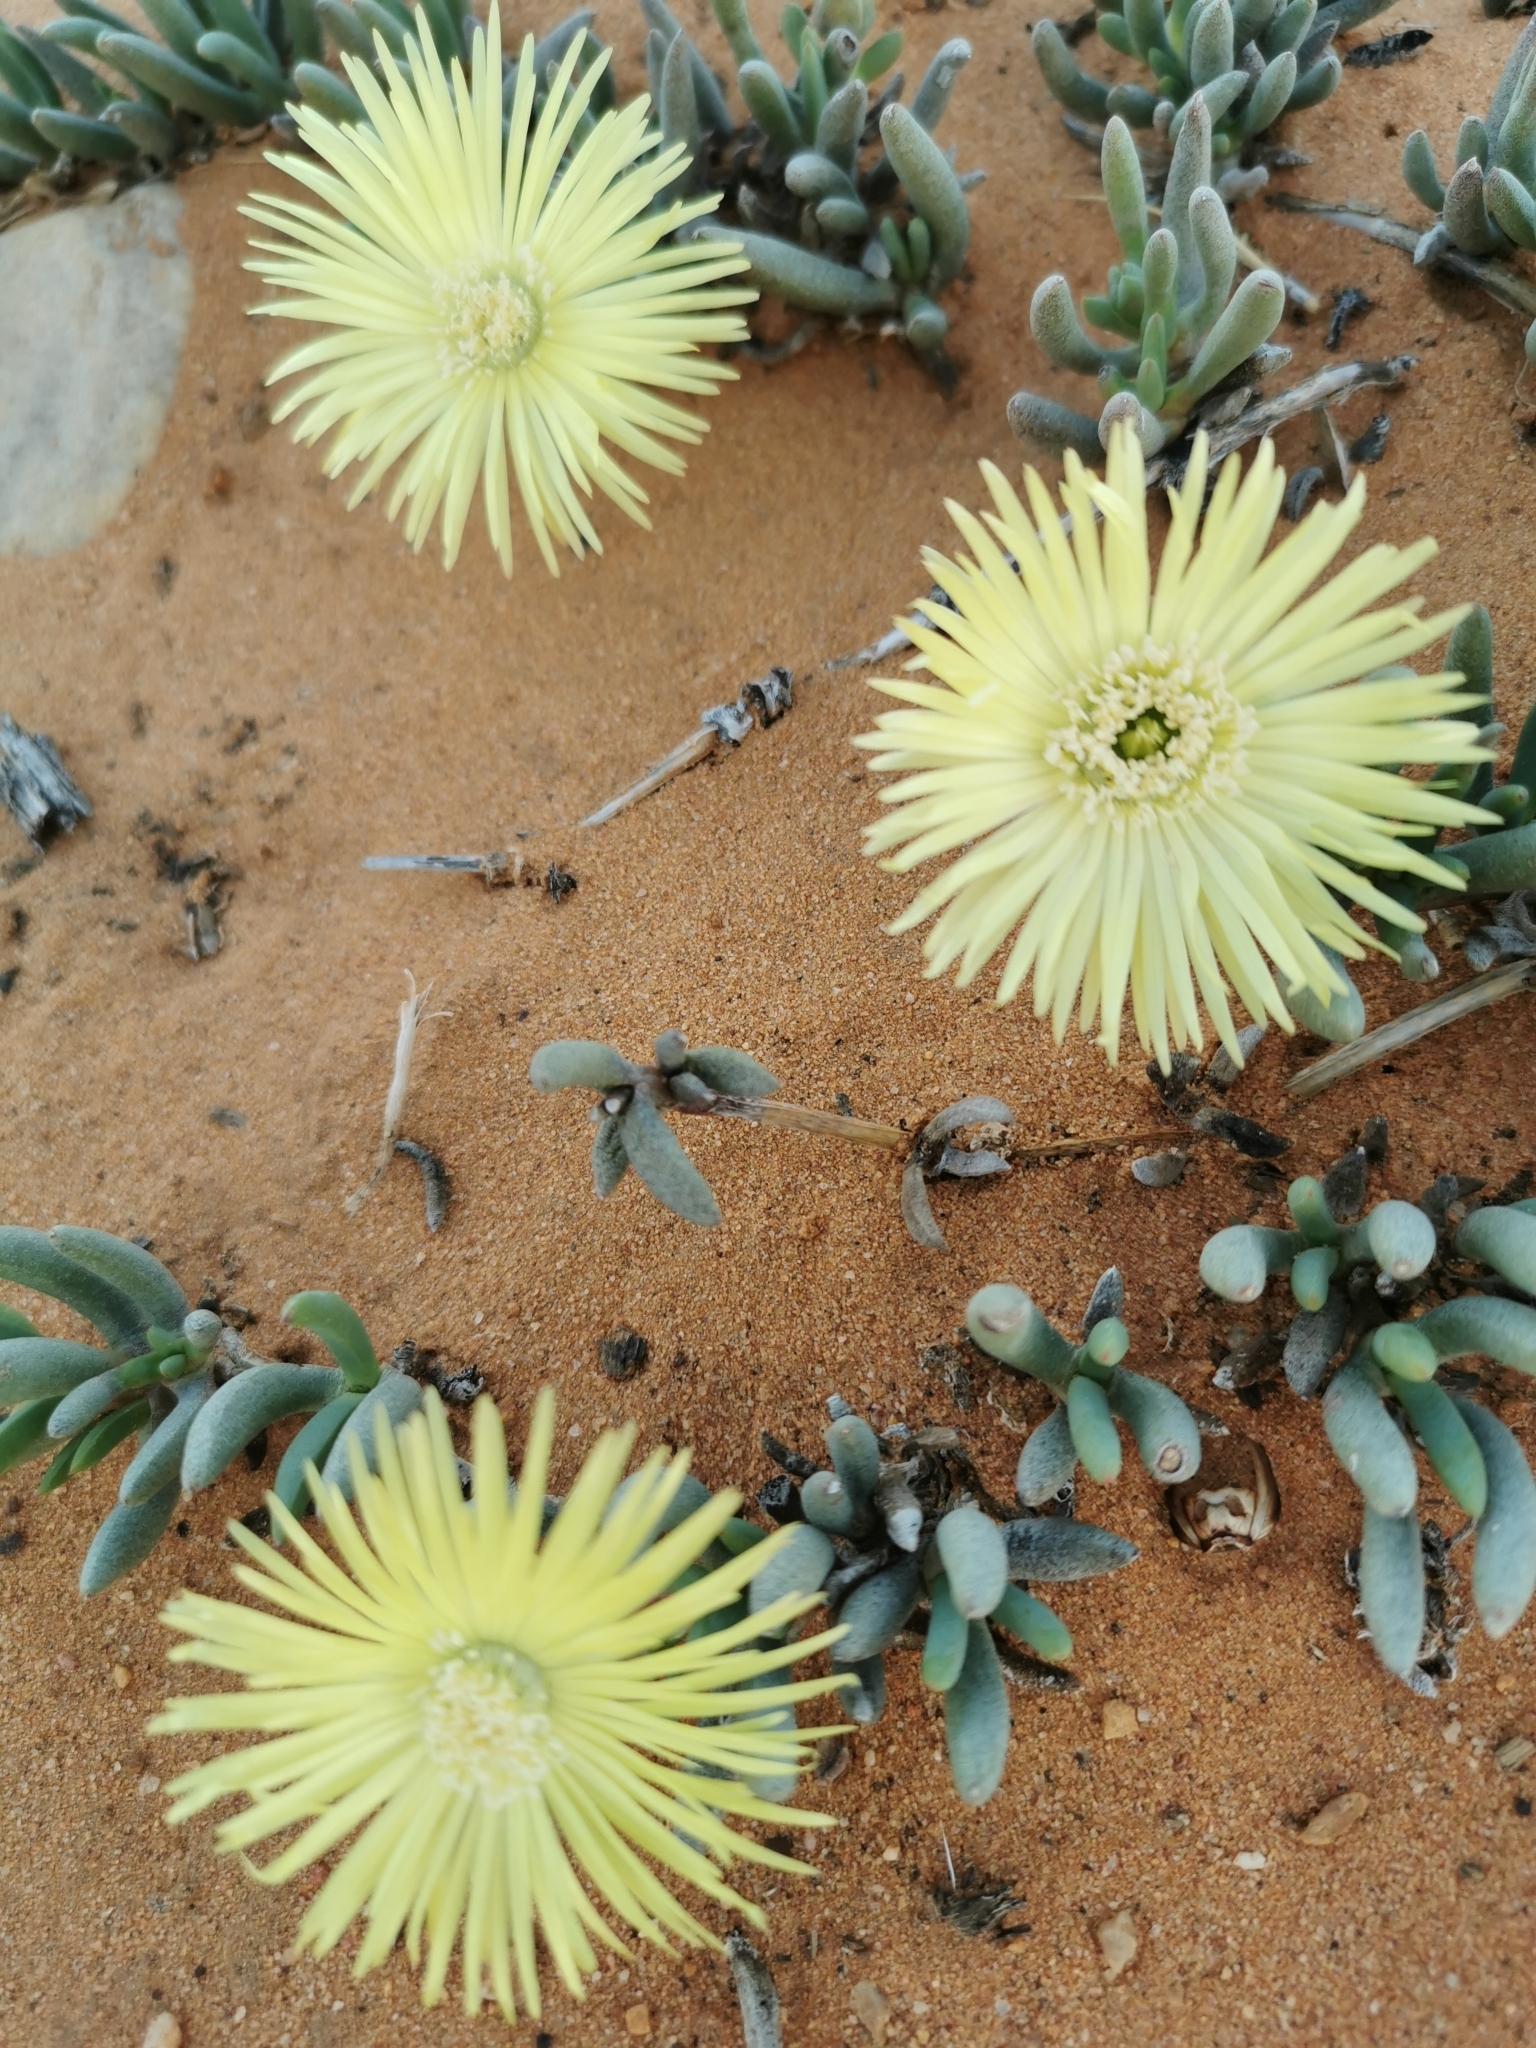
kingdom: Plantae
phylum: Tracheophyta
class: Magnoliopsida
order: Caryophyllales
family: Aizoaceae
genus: Cephalophyllum
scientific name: Cephalophyllum loreum
